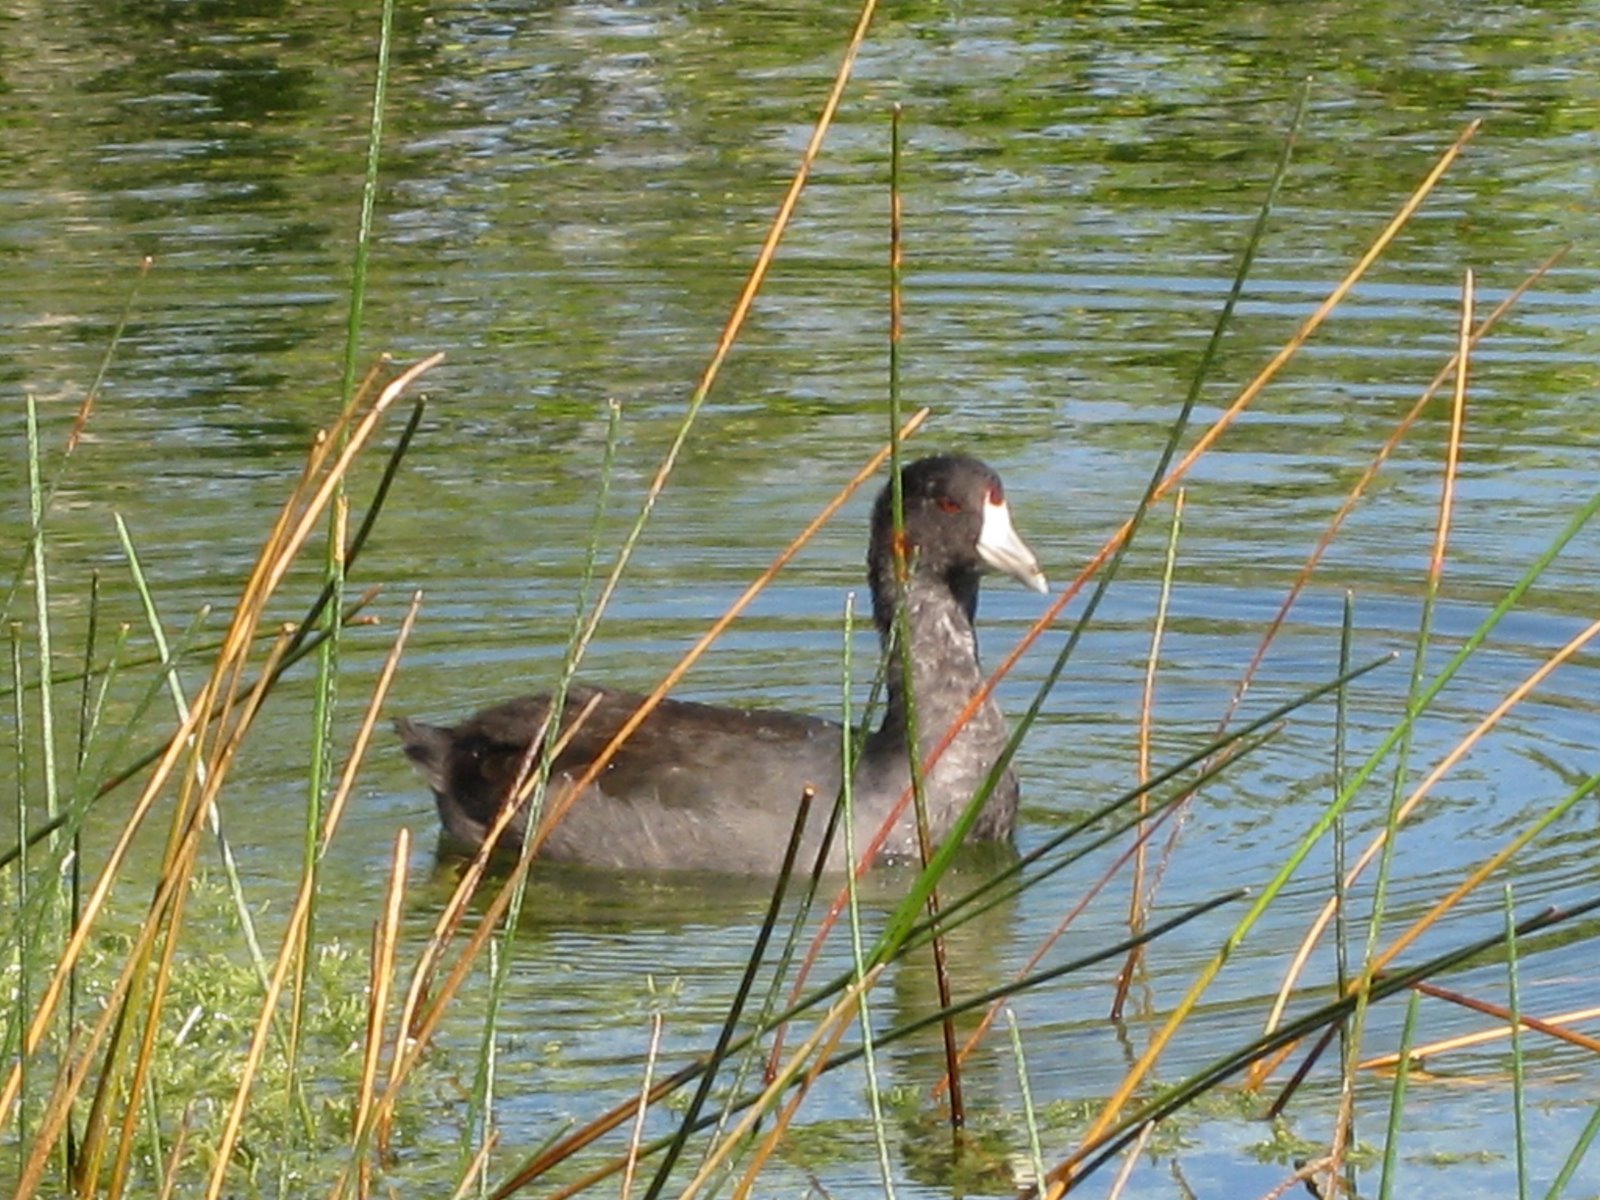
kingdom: Animalia
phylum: Chordata
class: Aves
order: Gruiformes
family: Rallidae
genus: Fulica
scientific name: Fulica americana
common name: American coot
